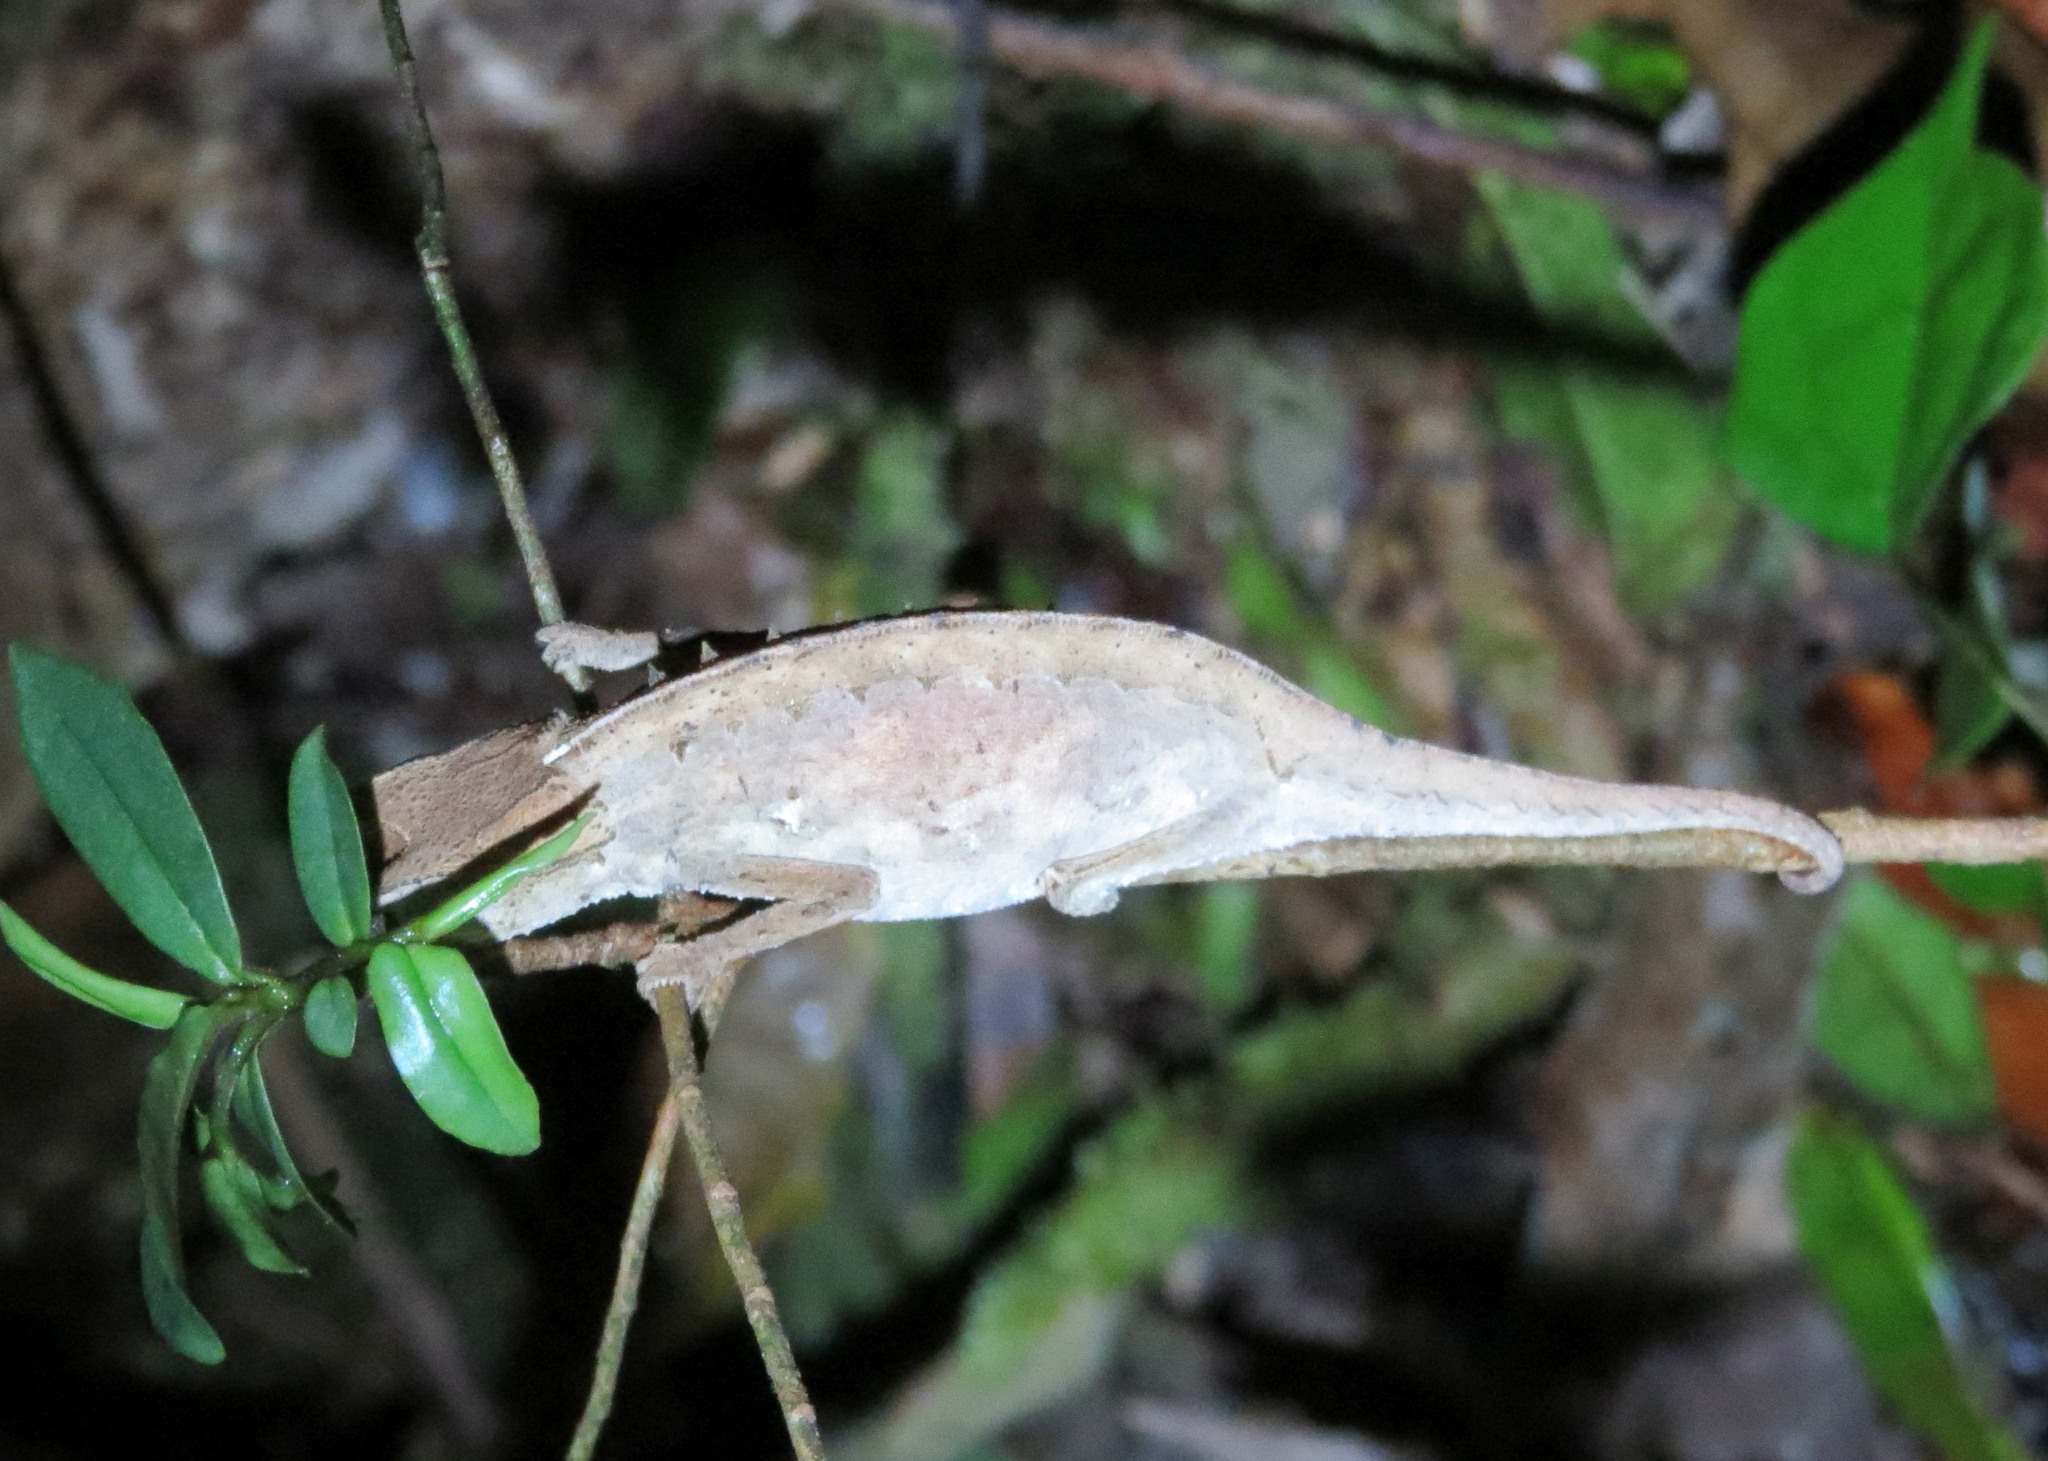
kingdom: Animalia
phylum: Chordata
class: Squamata
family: Chamaeleonidae
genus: Brookesia
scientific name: Brookesia superciliaris
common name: Brown leaf chameleon
